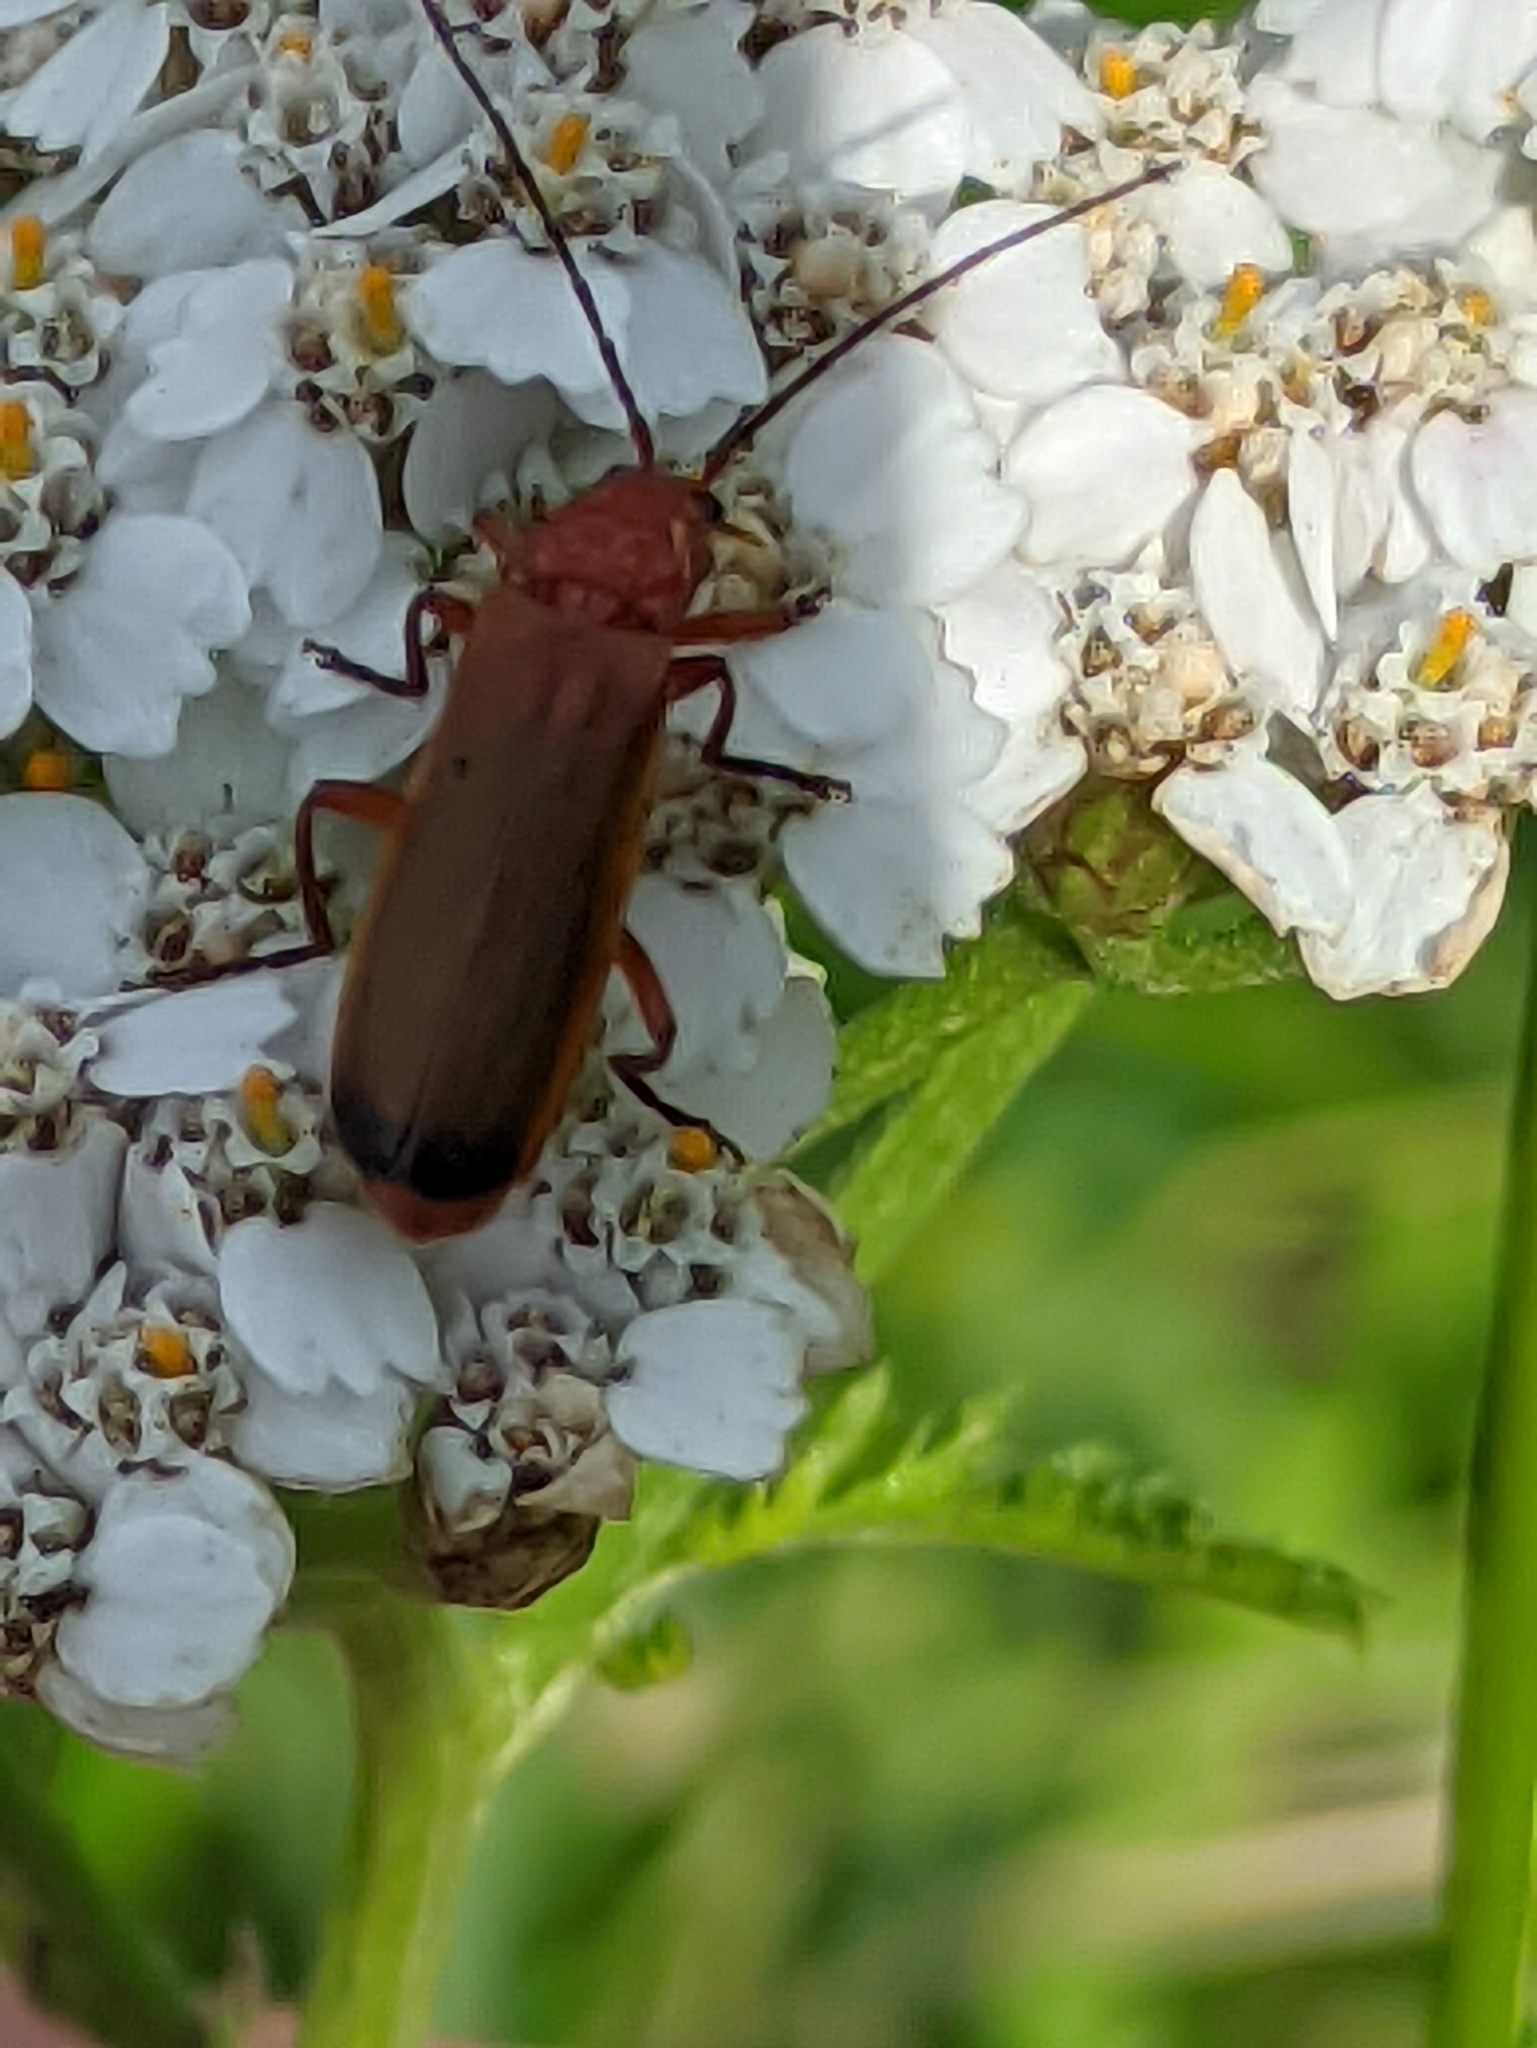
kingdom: Animalia
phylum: Arthropoda
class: Insecta
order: Coleoptera
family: Cantharidae
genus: Rhagonycha
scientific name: Rhagonycha fulva
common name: Common red soldier beetle
